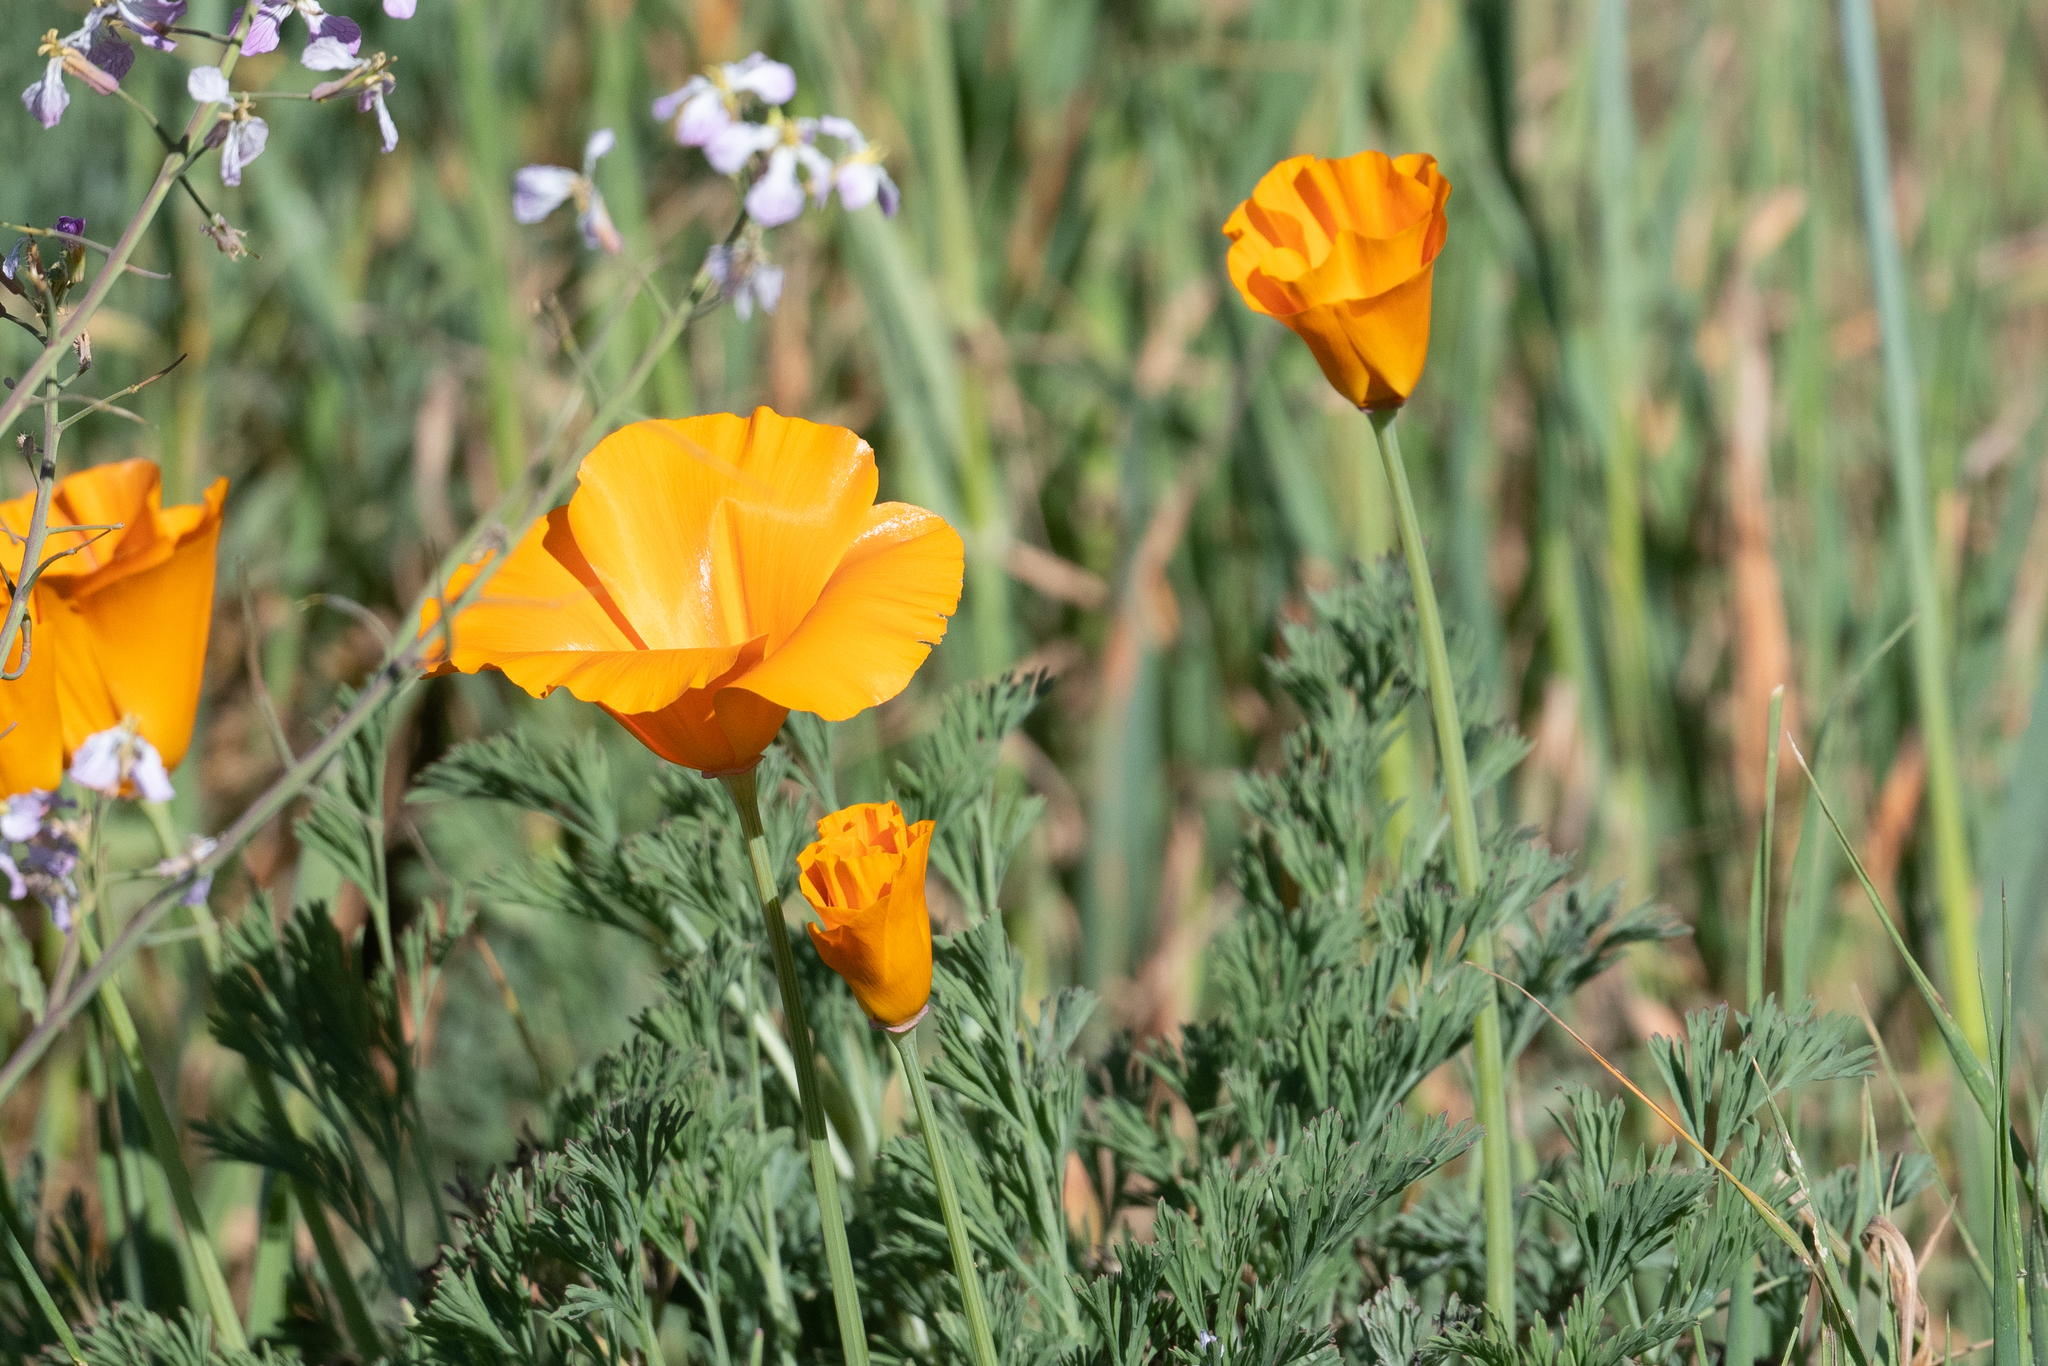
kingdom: Plantae
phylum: Tracheophyta
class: Magnoliopsida
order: Ranunculales
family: Papaveraceae
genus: Eschscholzia
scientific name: Eschscholzia californica
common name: California poppy
